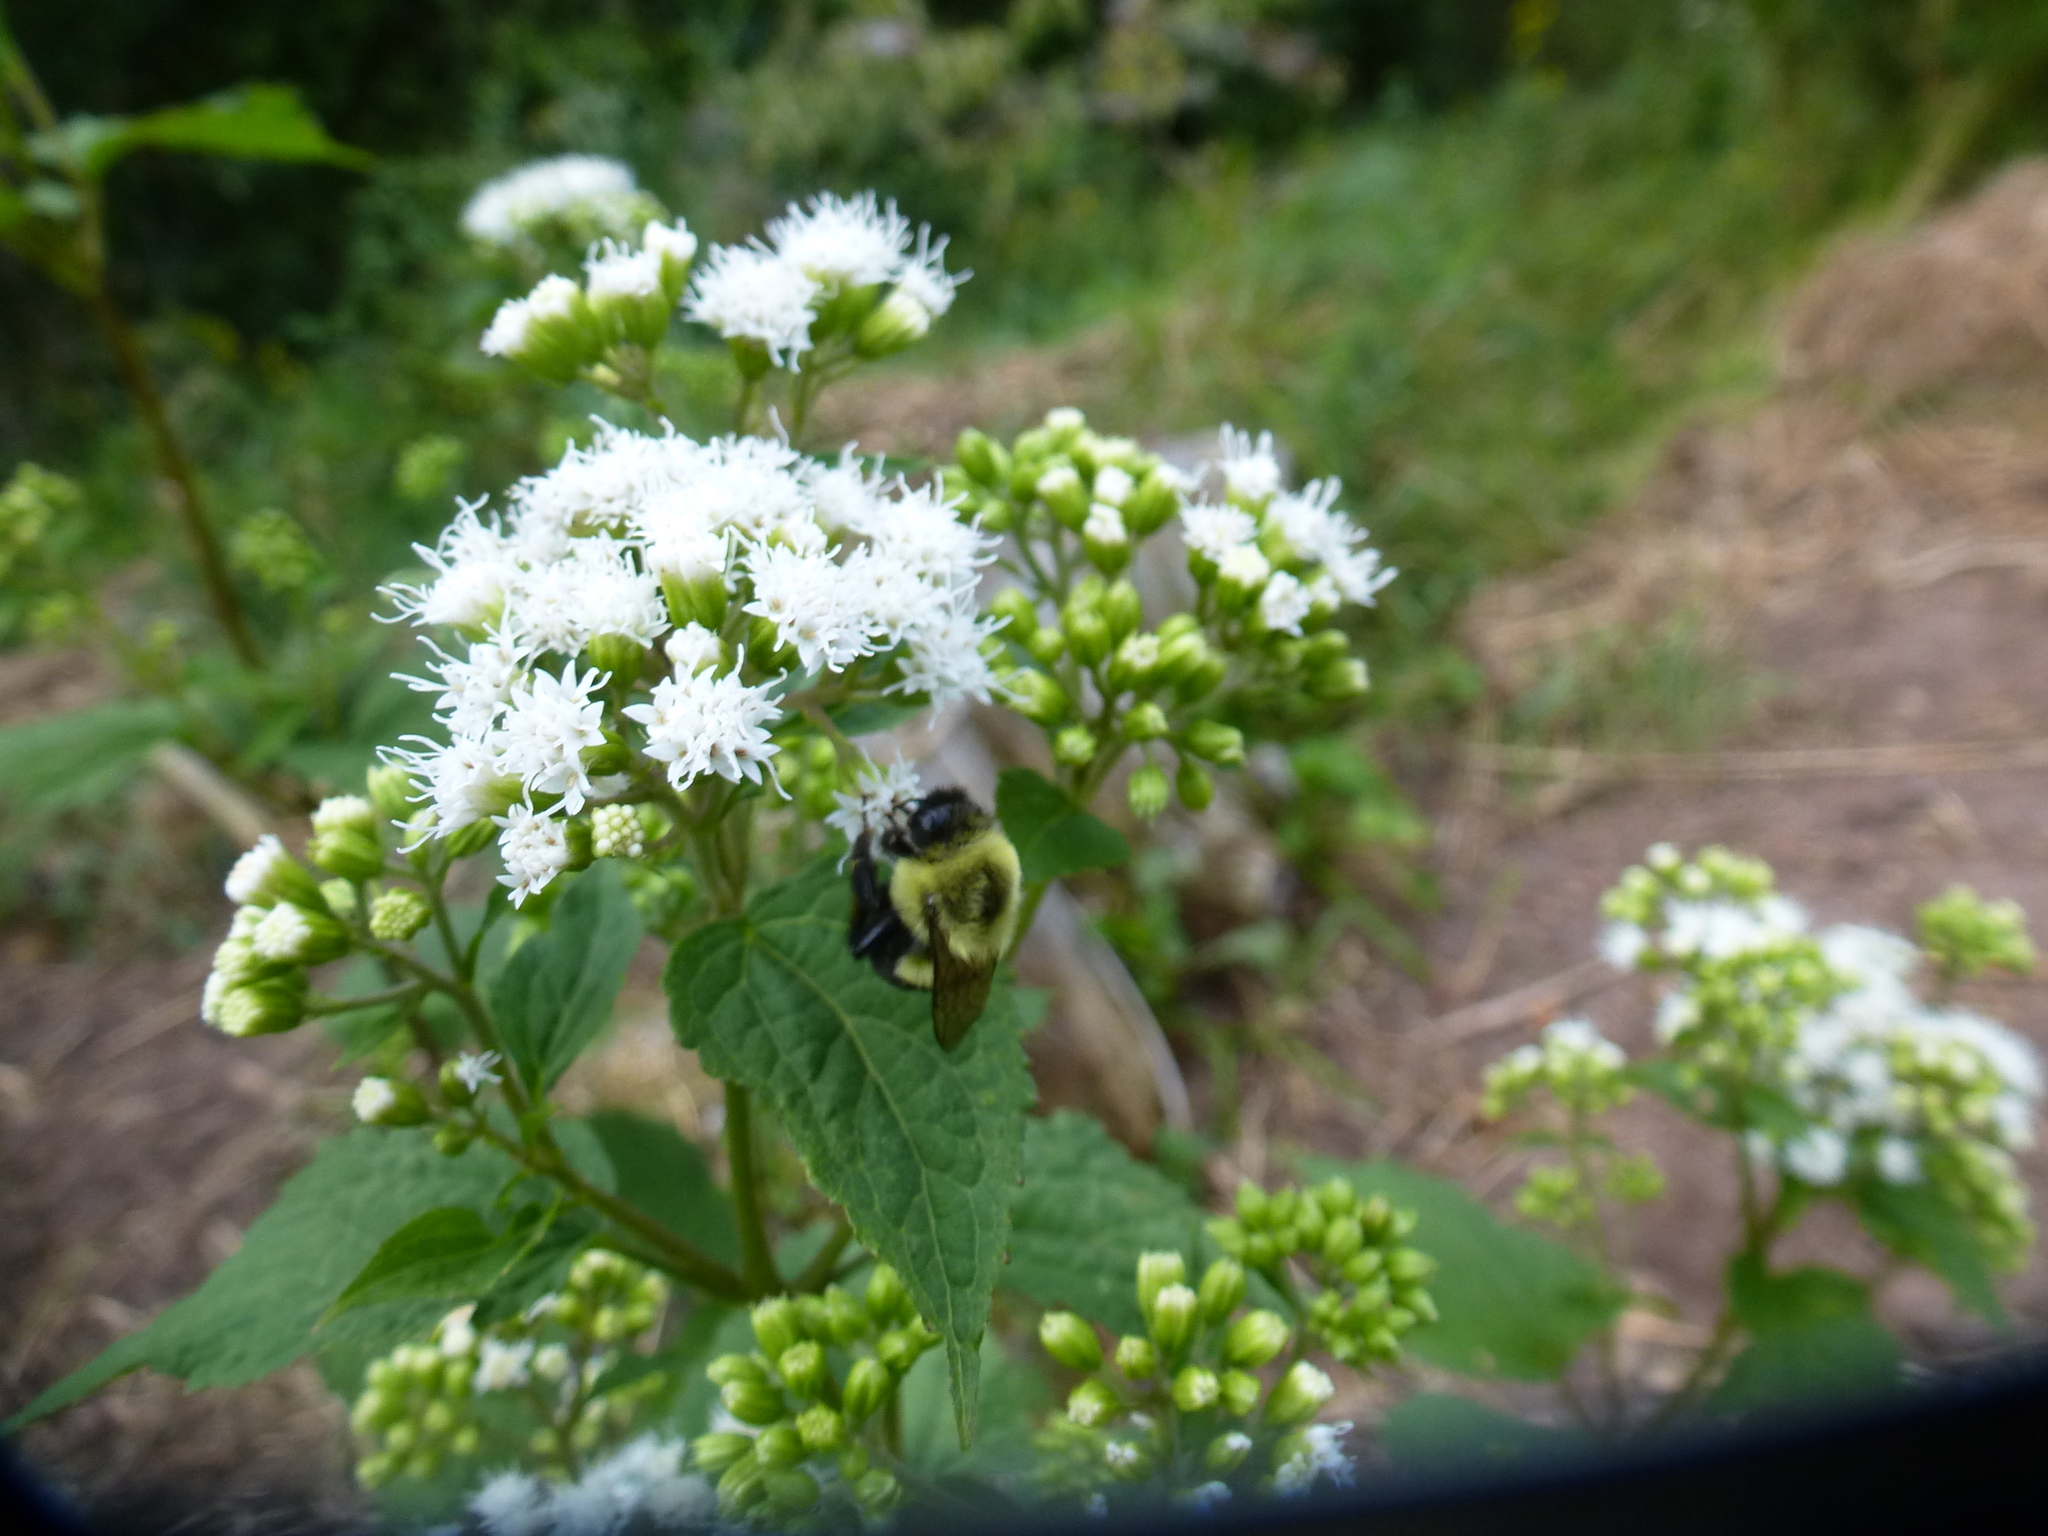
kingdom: Animalia
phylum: Arthropoda
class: Insecta
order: Hymenoptera
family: Apidae
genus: Bombus
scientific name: Bombus impatiens
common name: Common eastern bumble bee
